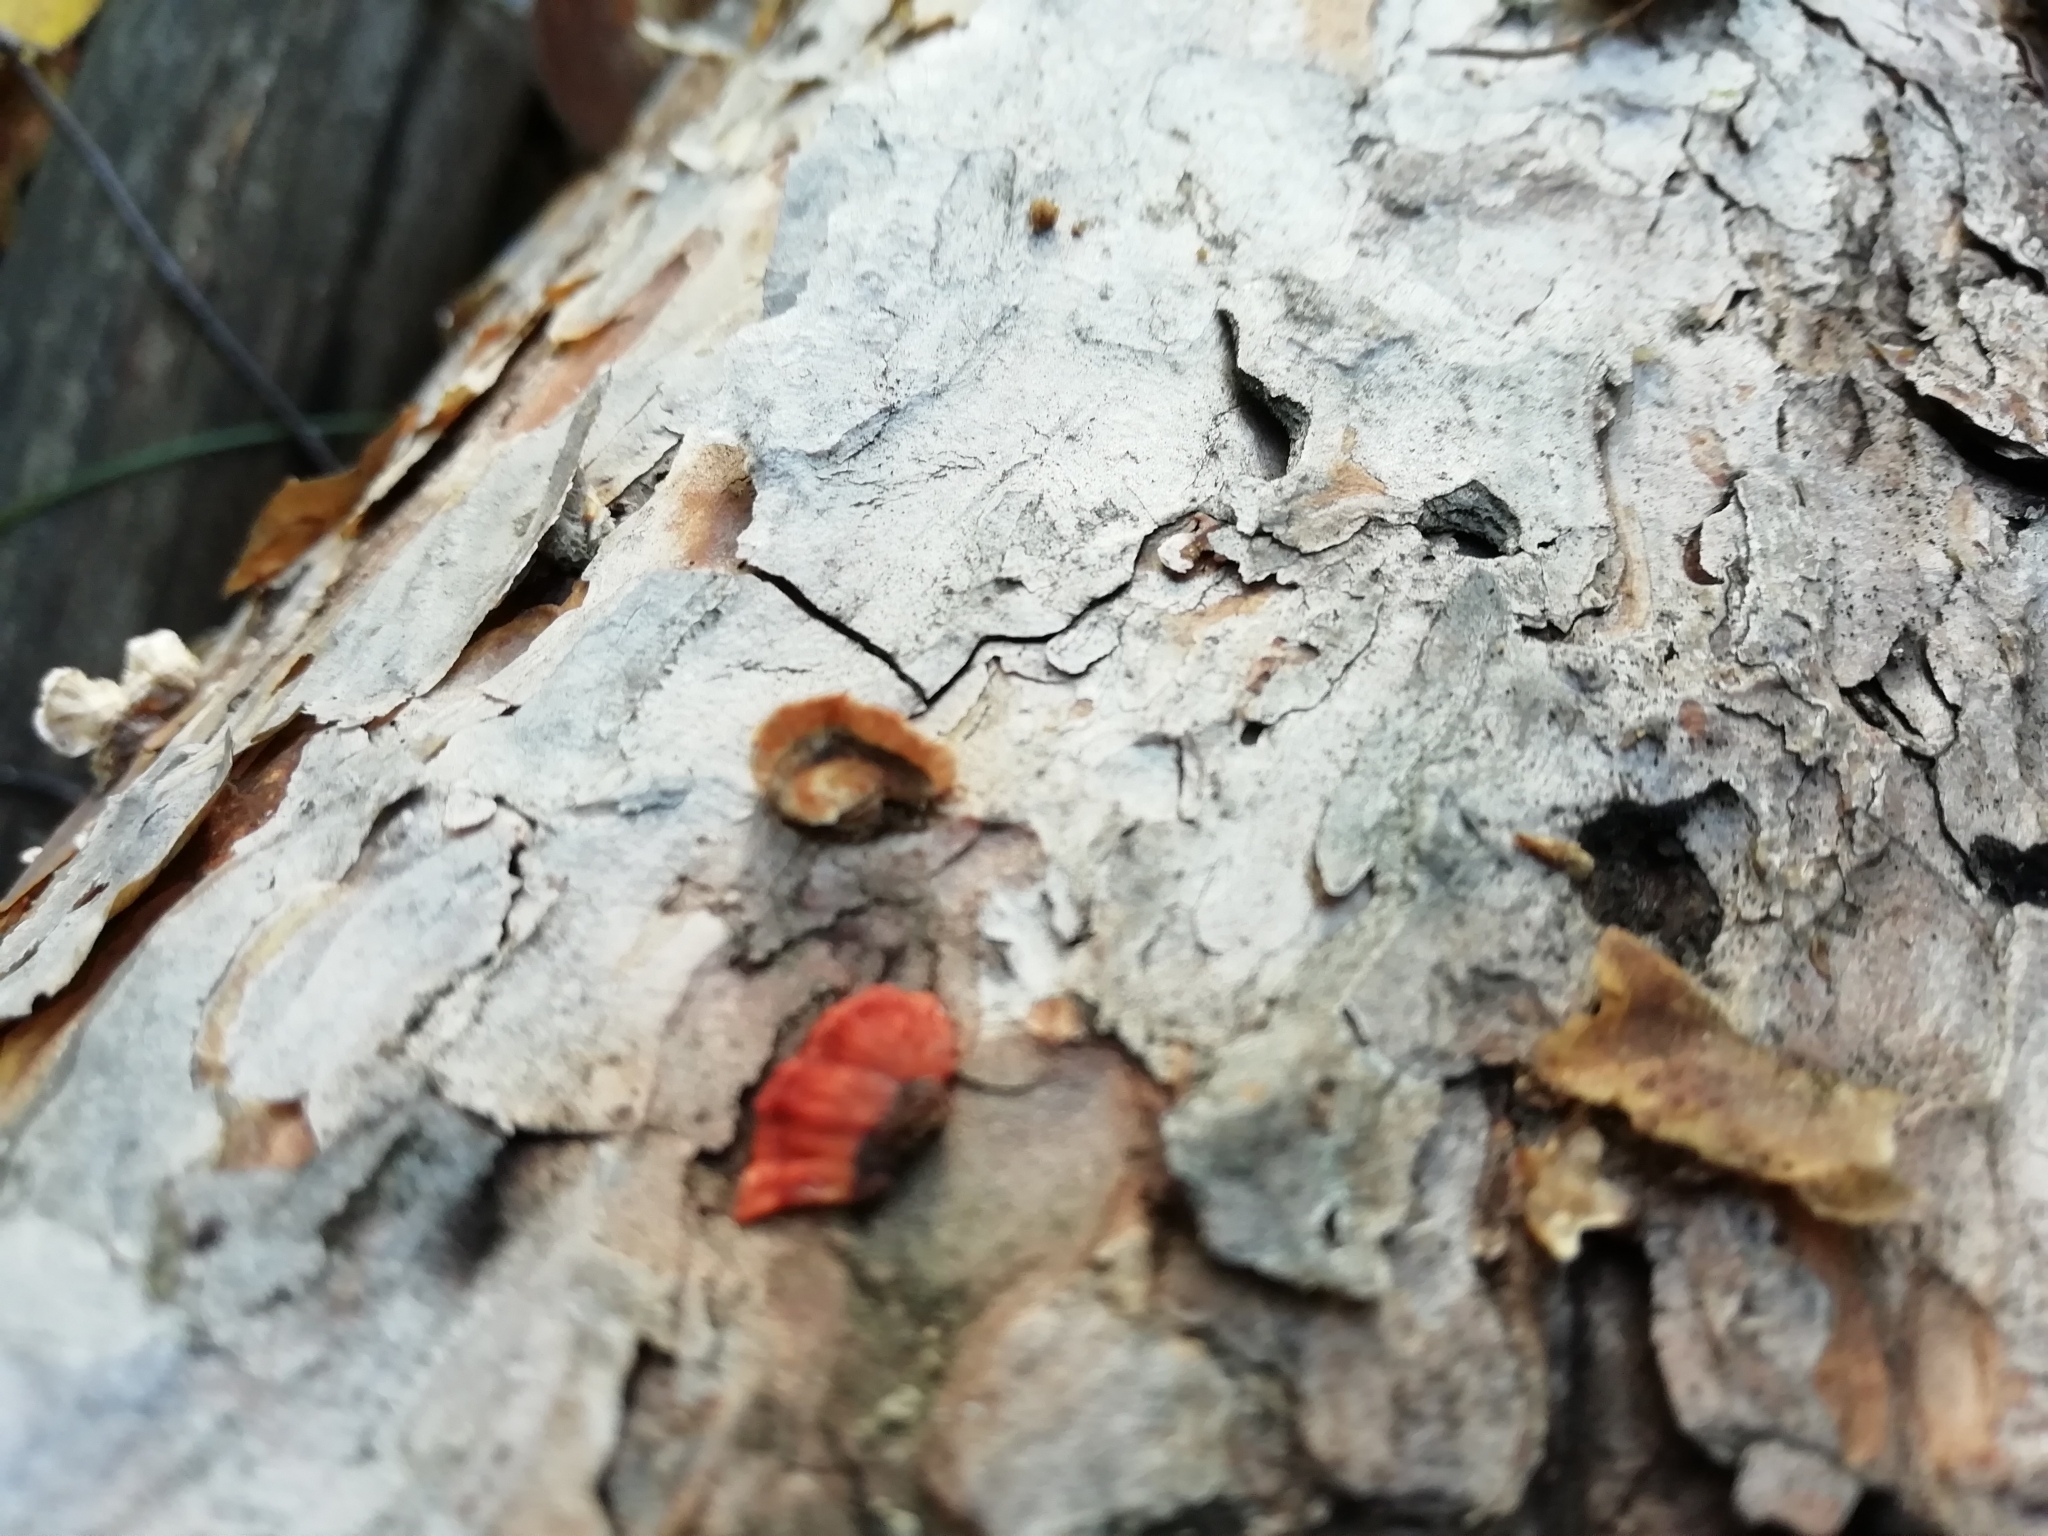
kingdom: Fungi
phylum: Basidiomycota
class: Agaricomycetes
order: Russulales
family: Stereaceae
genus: Stereum
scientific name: Stereum sanguinolentum
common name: Bleeding conifer crust
